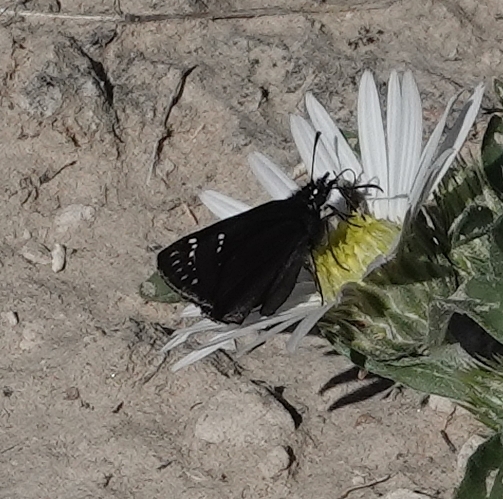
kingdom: Animalia
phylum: Arthropoda
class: Insecta
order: Lepidoptera
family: Hesperiidae
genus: Pholisora
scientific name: Pholisora catullus
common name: Common sootywing
